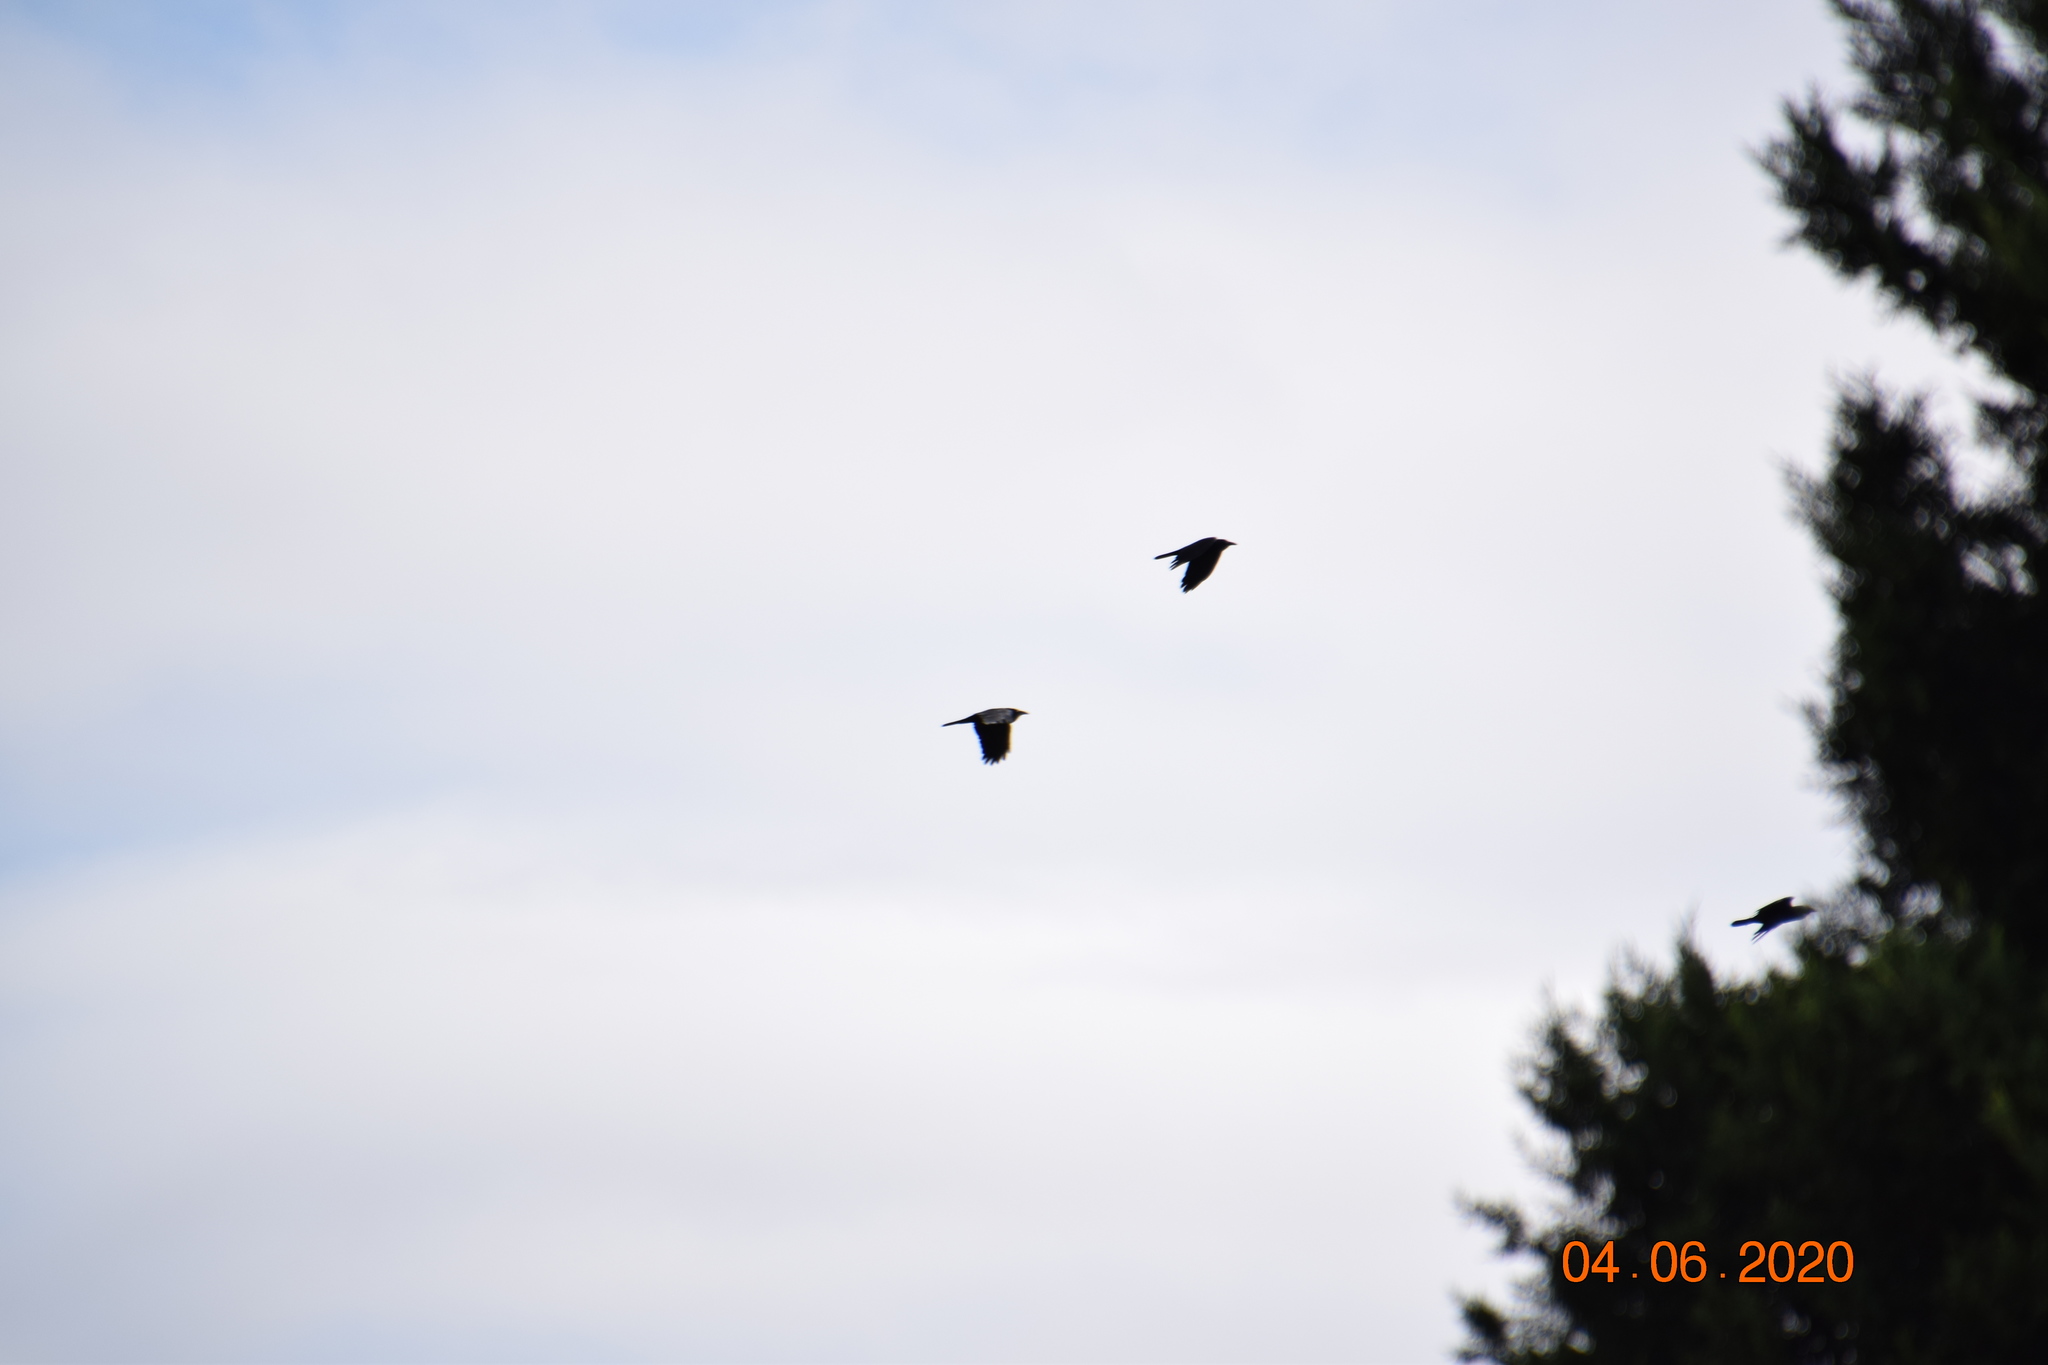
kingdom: Animalia
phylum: Chordata
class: Aves
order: Passeriformes
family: Corvidae
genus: Corvus
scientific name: Corvus coronoides
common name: Australian raven
